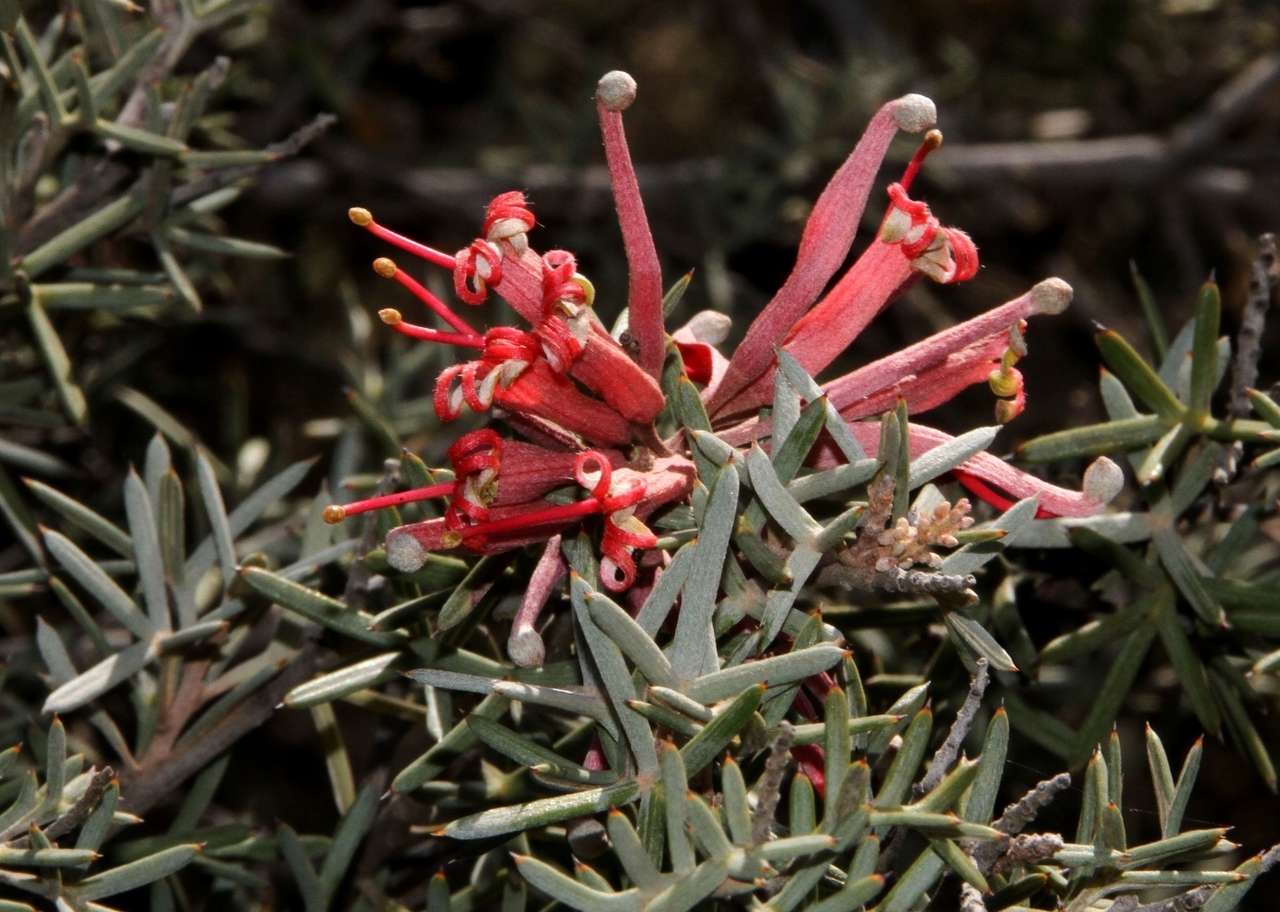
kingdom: Plantae
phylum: Tracheophyta
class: Magnoliopsida
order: Proteales
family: Proteaceae
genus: Grevillea
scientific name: Grevillea huegelii
